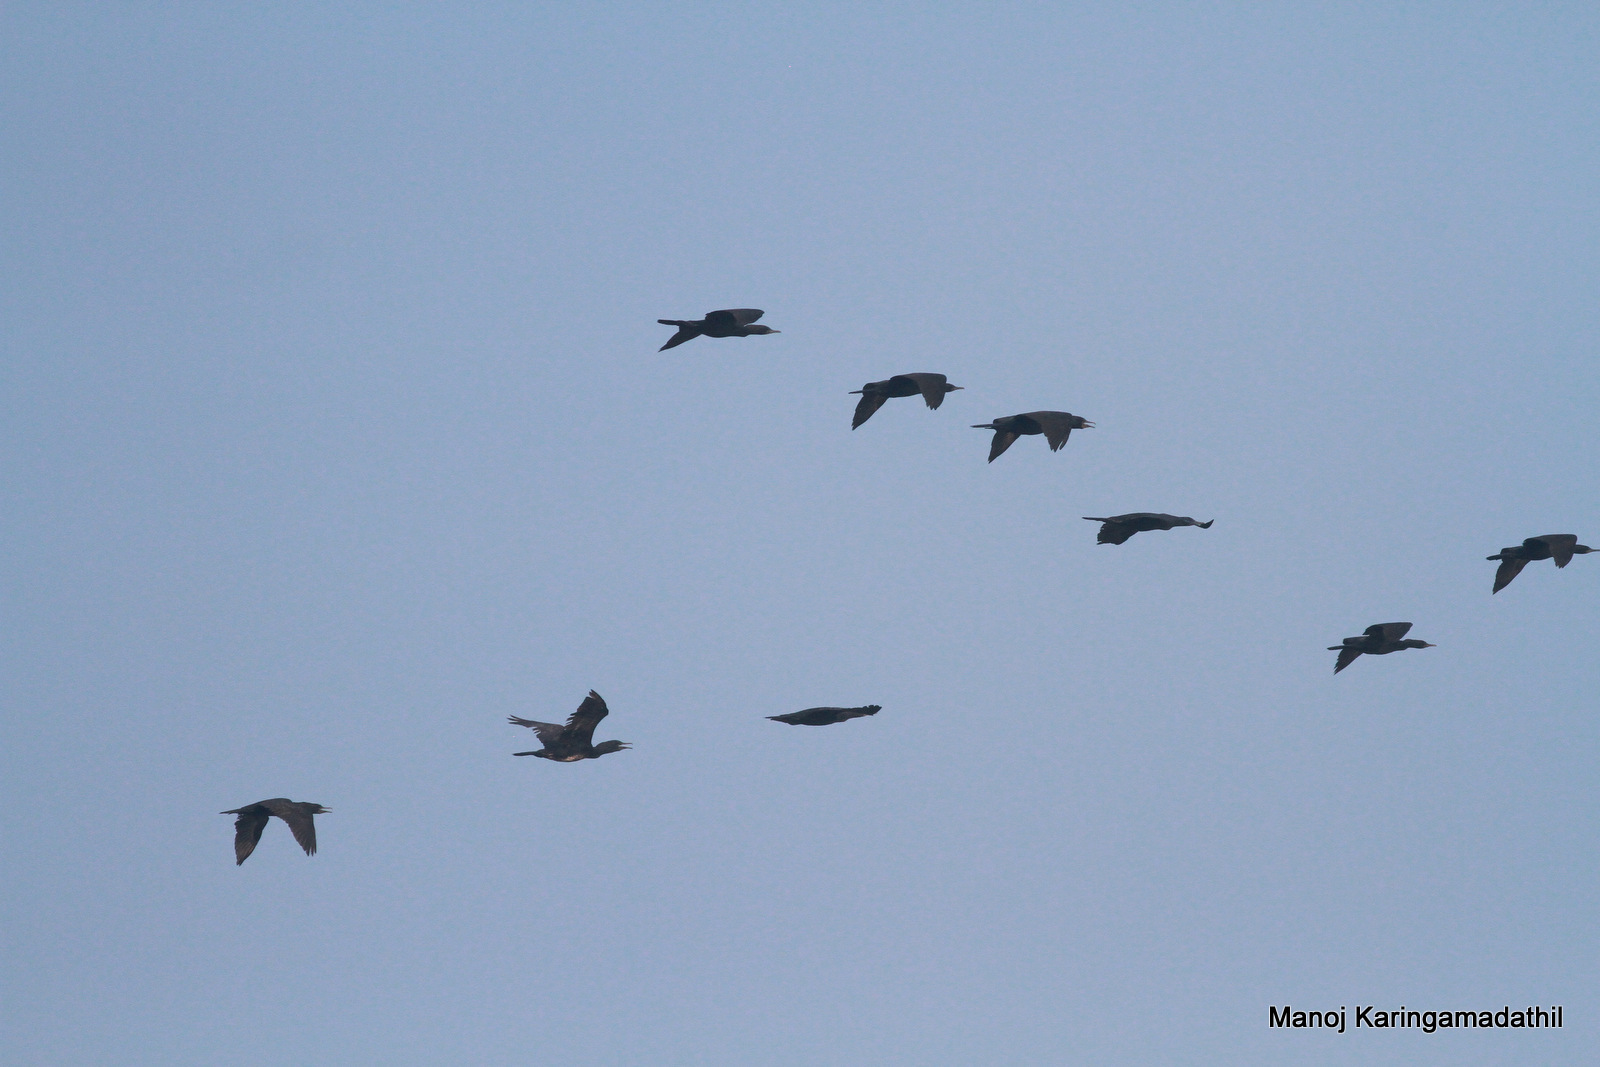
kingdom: Animalia
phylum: Chordata
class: Aves
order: Suliformes
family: Phalacrocoracidae
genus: Phalacrocorax
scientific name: Phalacrocorax fuscicollis
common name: Indian cormorant
